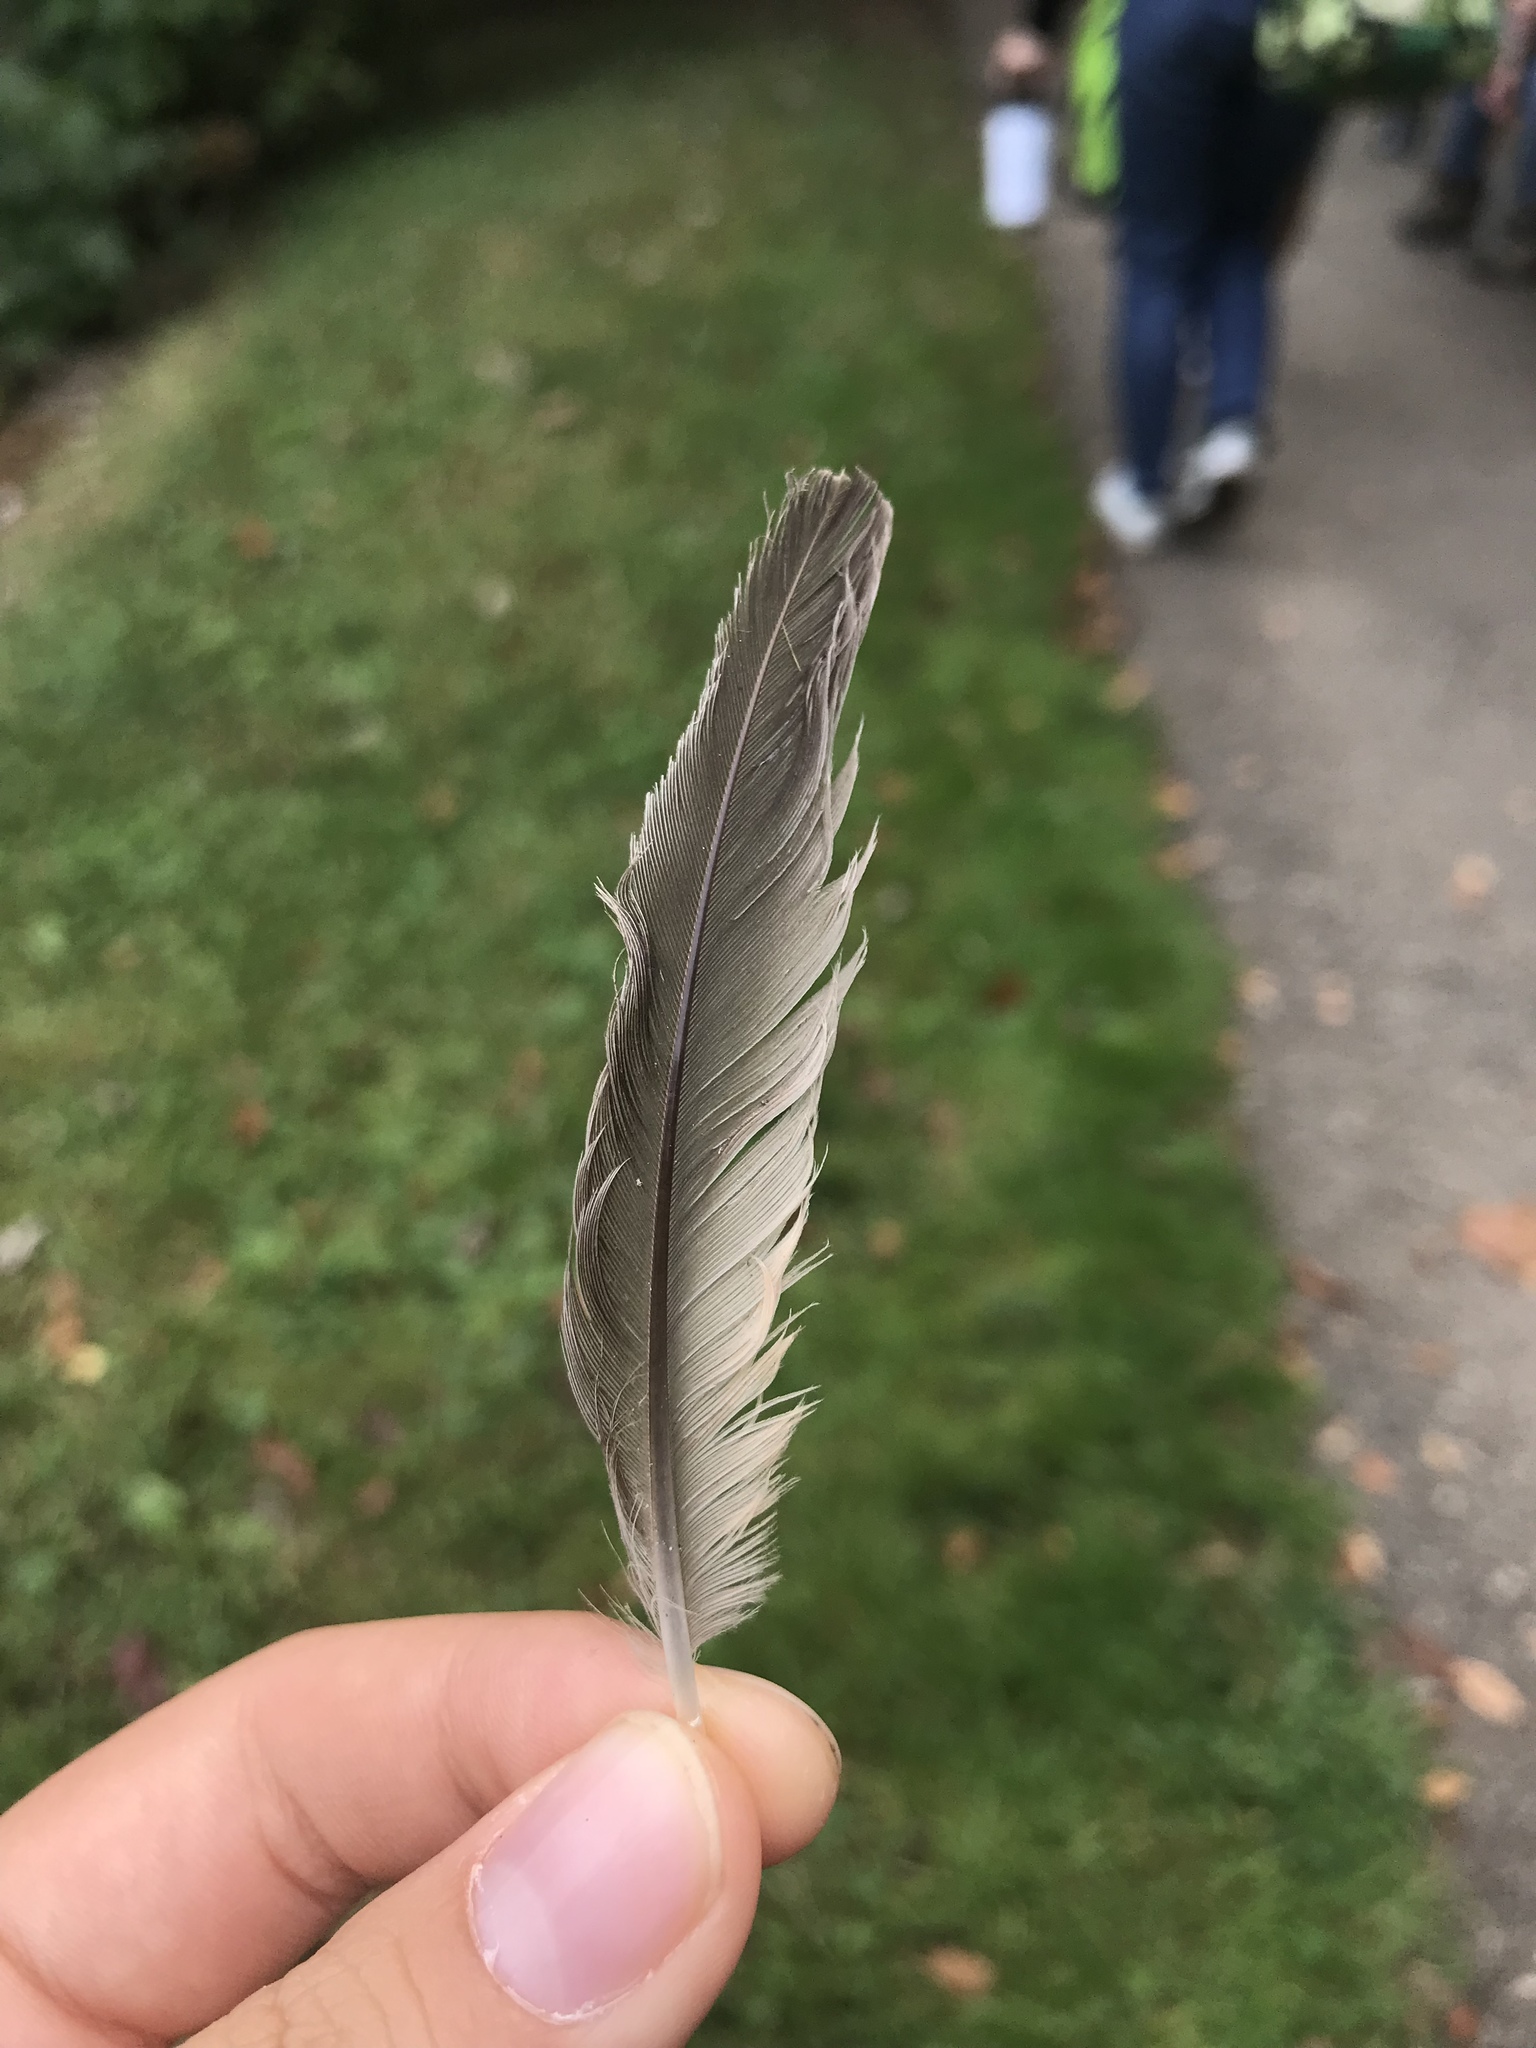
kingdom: Animalia
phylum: Chordata
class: Aves
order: Passeriformes
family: Turdidae
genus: Turdus
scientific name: Turdus migratorius
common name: American robin
